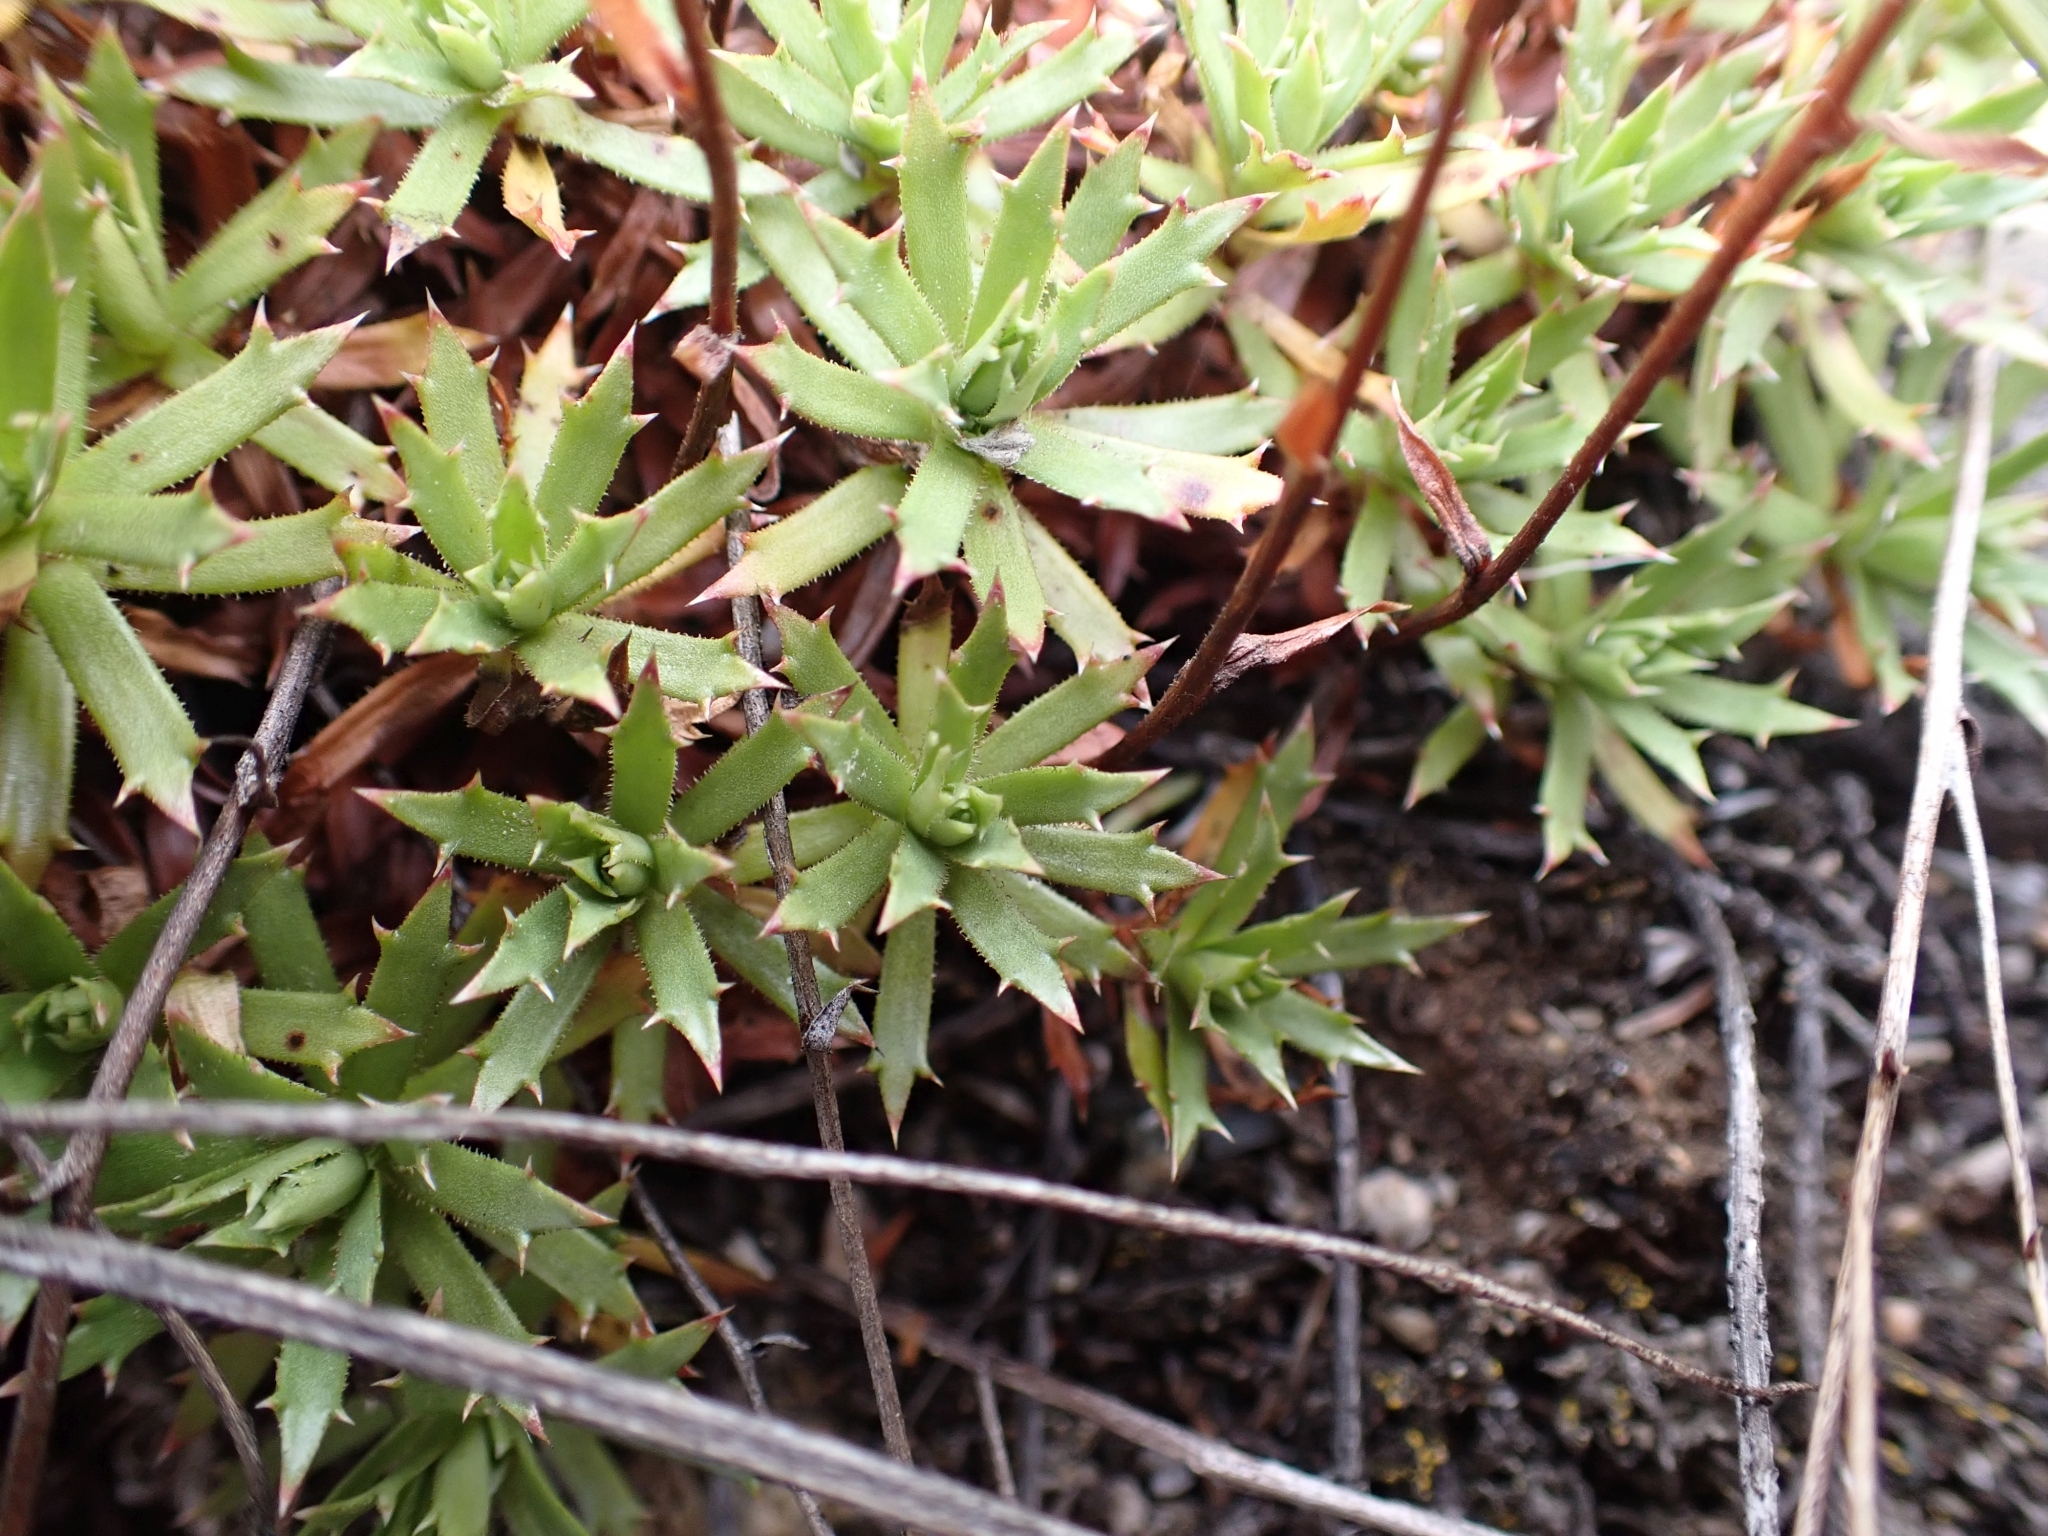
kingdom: Plantae
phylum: Tracheophyta
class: Magnoliopsida
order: Saxifragales
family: Saxifragaceae
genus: Saxifraga
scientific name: Saxifraga tricuspidata
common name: Prickly saxifrage
